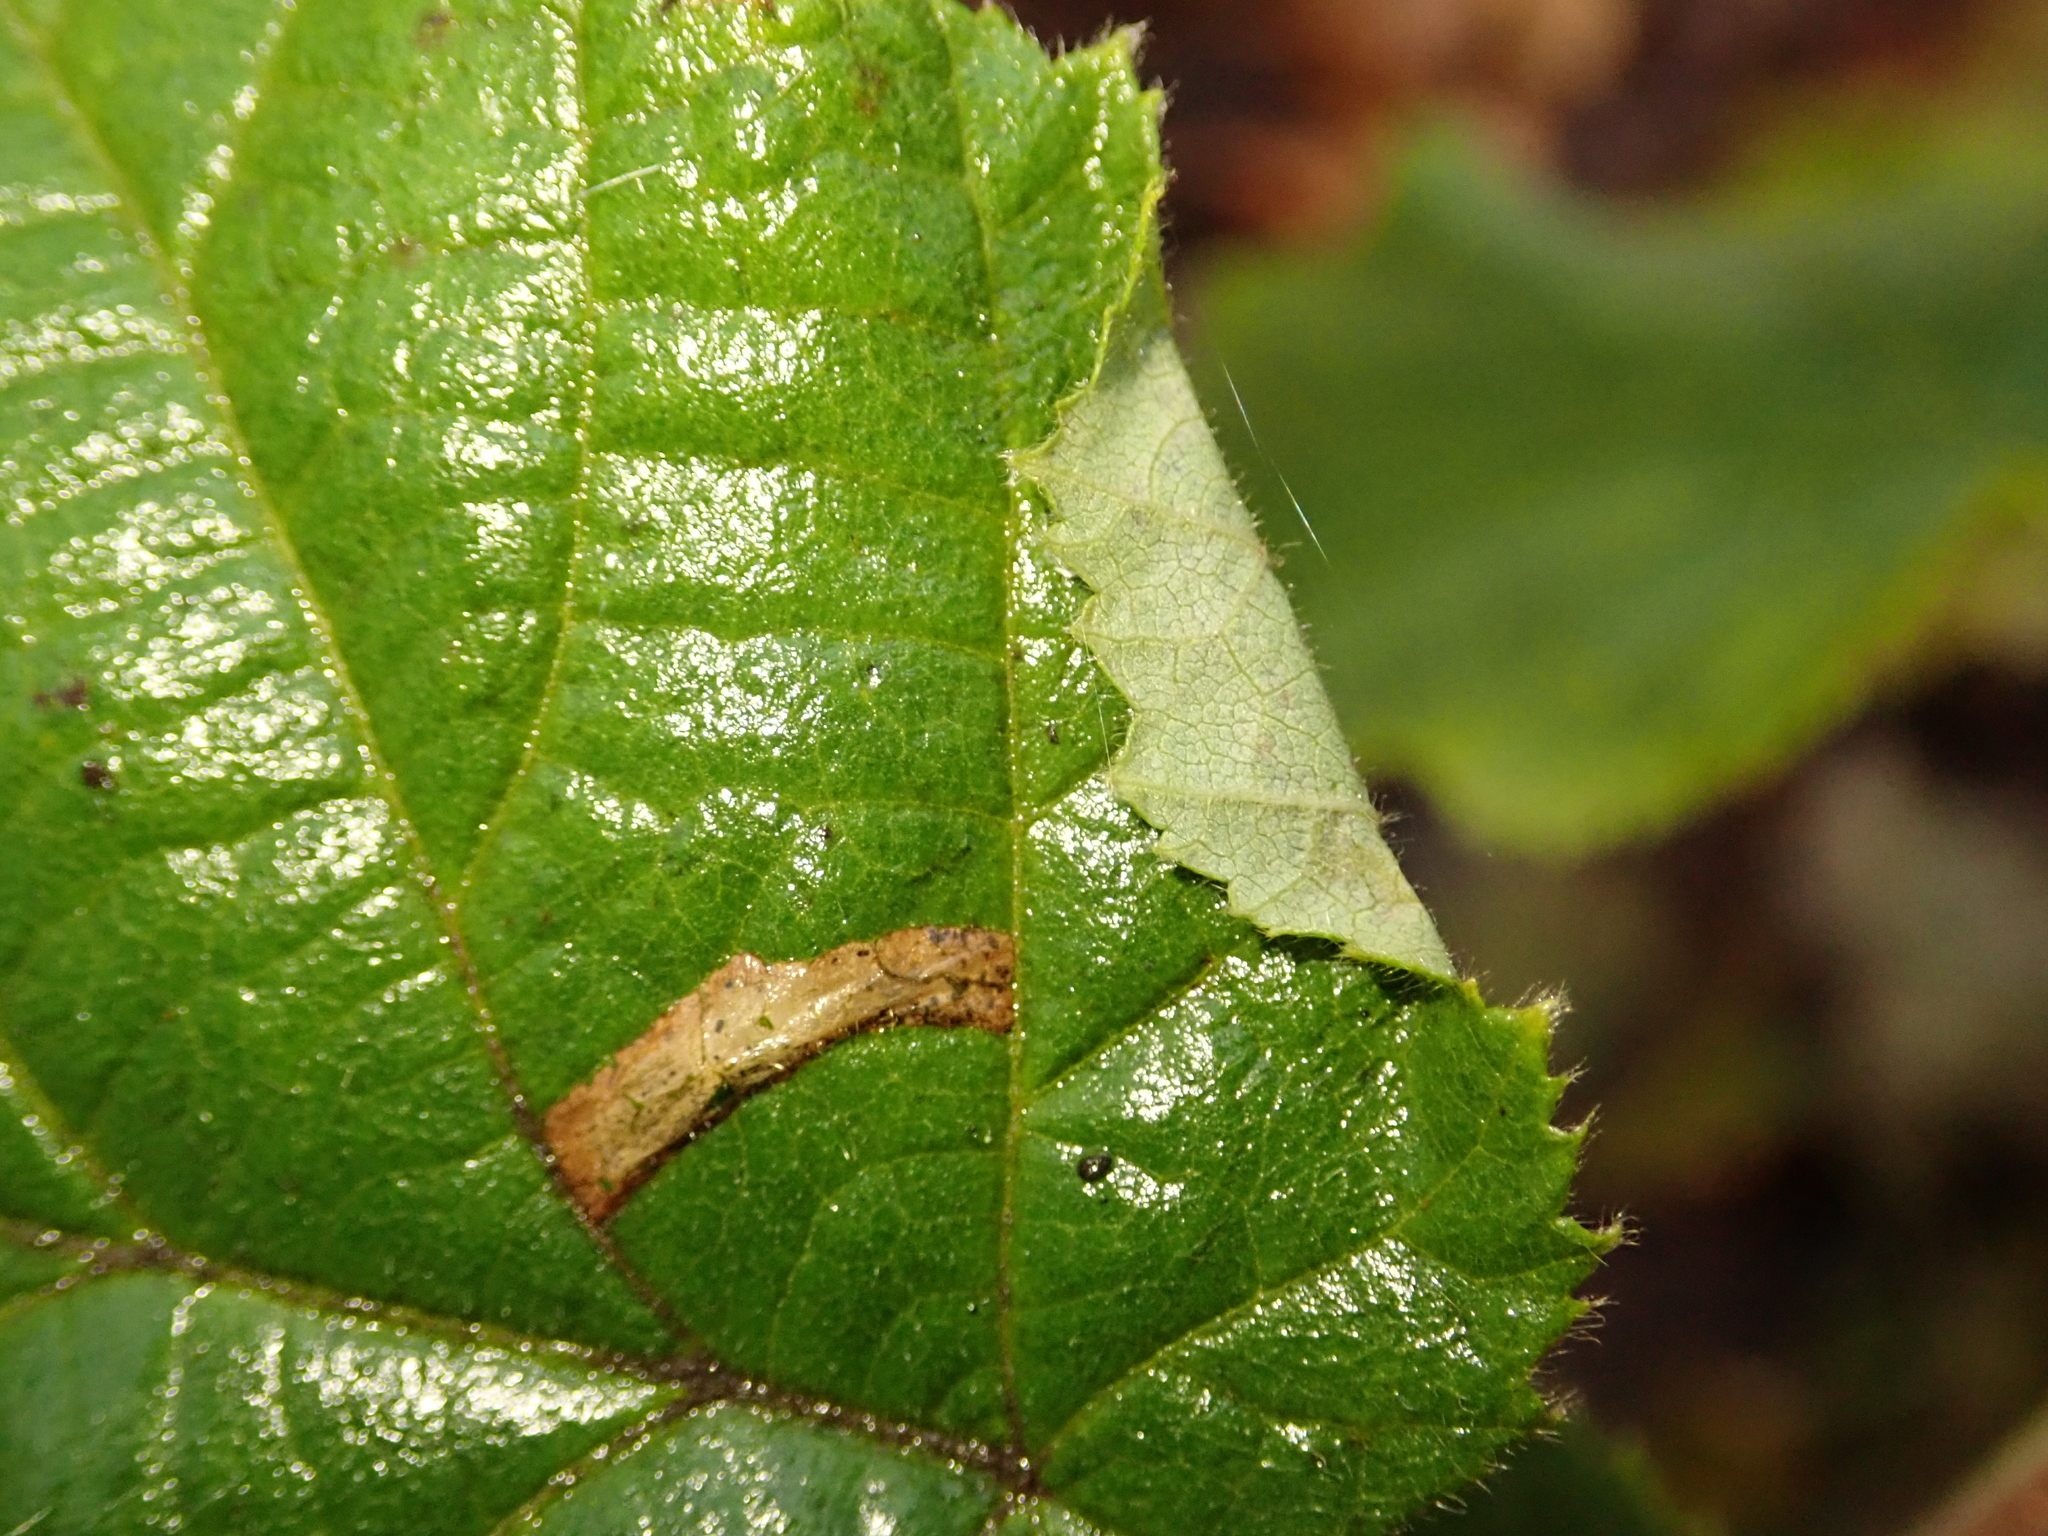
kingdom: Animalia
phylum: Arthropoda
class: Insecta
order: Lepidoptera
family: Gracillariidae
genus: Parornix
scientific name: Parornix devoniella
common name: Hazel slender
